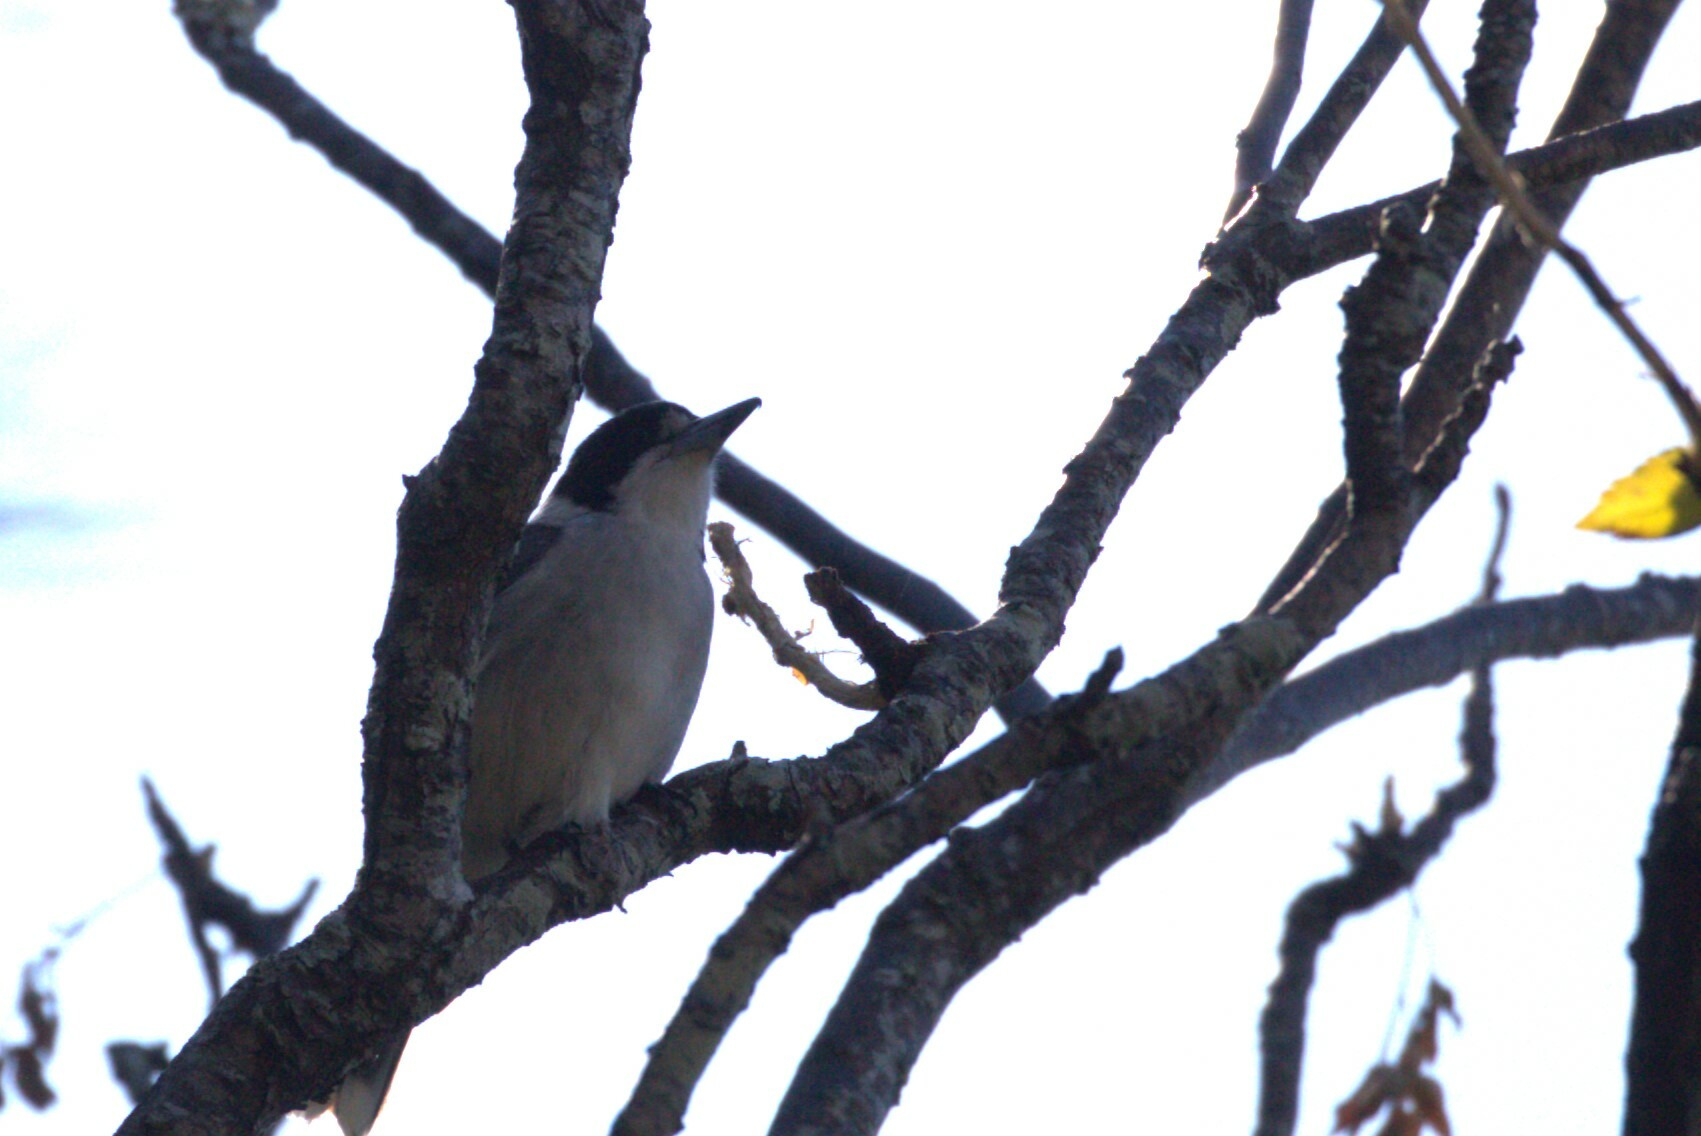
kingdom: Animalia
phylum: Chordata
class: Aves
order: Passeriformes
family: Cracticidae
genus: Cracticus
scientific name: Cracticus torquatus
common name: Grey butcherbird
